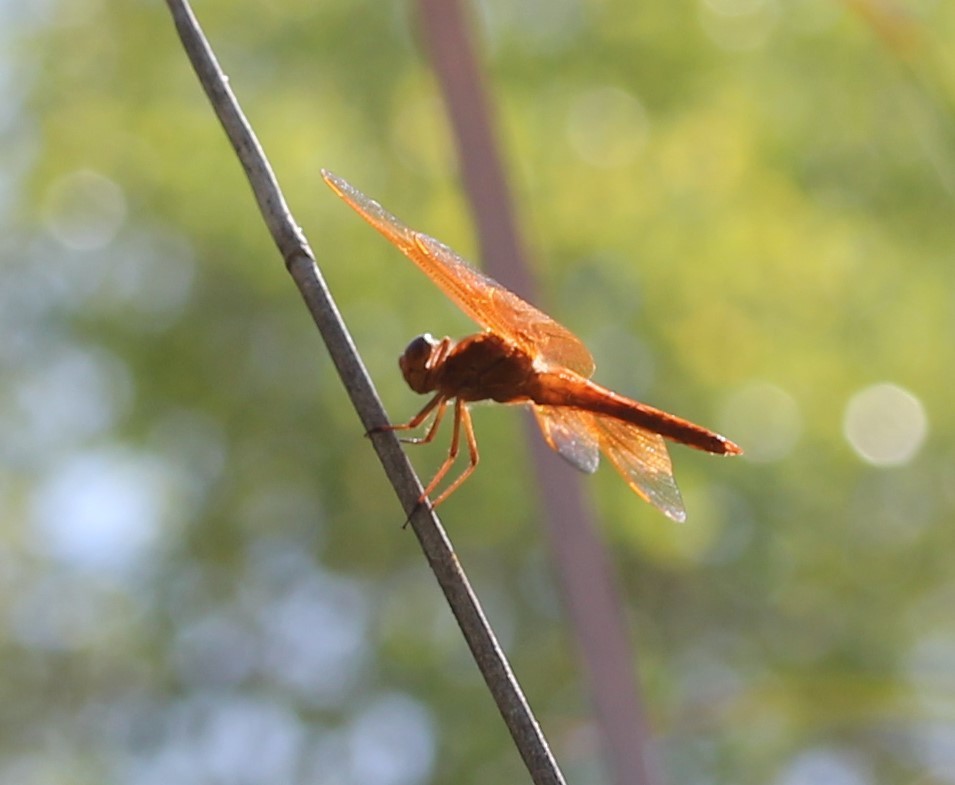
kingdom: Animalia
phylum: Arthropoda
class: Insecta
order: Odonata
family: Libellulidae
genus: Libellula
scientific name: Libellula saturata
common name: Flame skimmer
